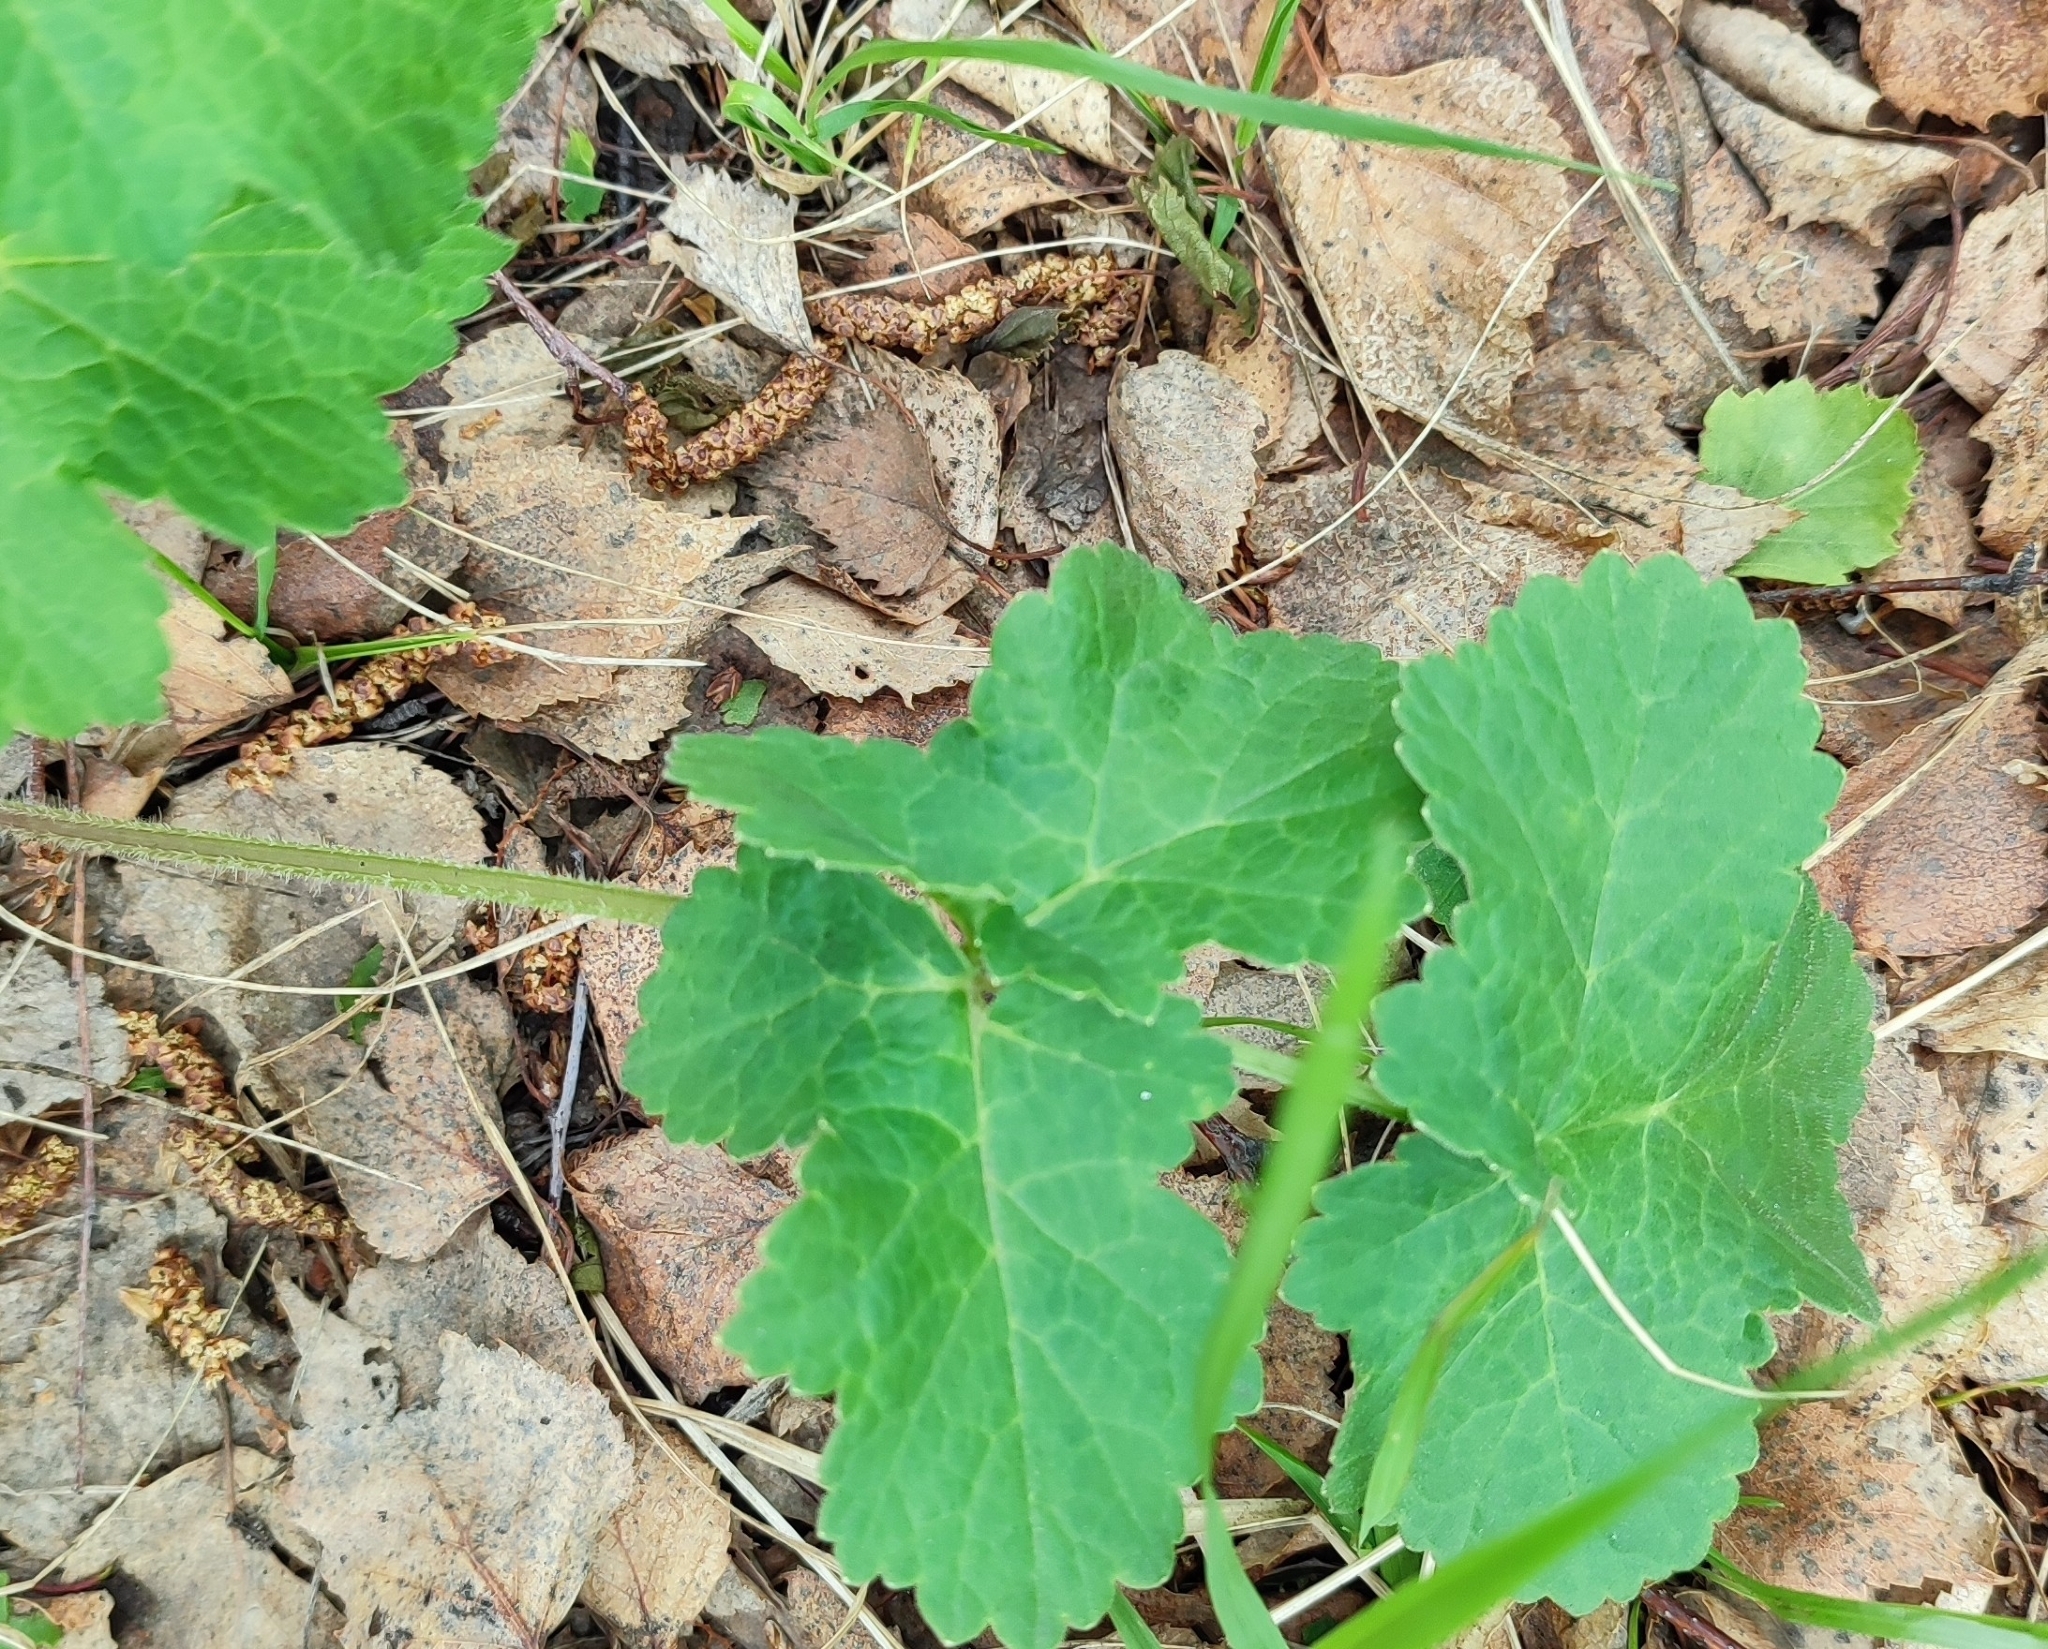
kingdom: Plantae
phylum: Tracheophyta
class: Magnoliopsida
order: Apiales
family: Apiaceae
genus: Heracleum
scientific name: Heracleum sphondylium
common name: Hogweed
